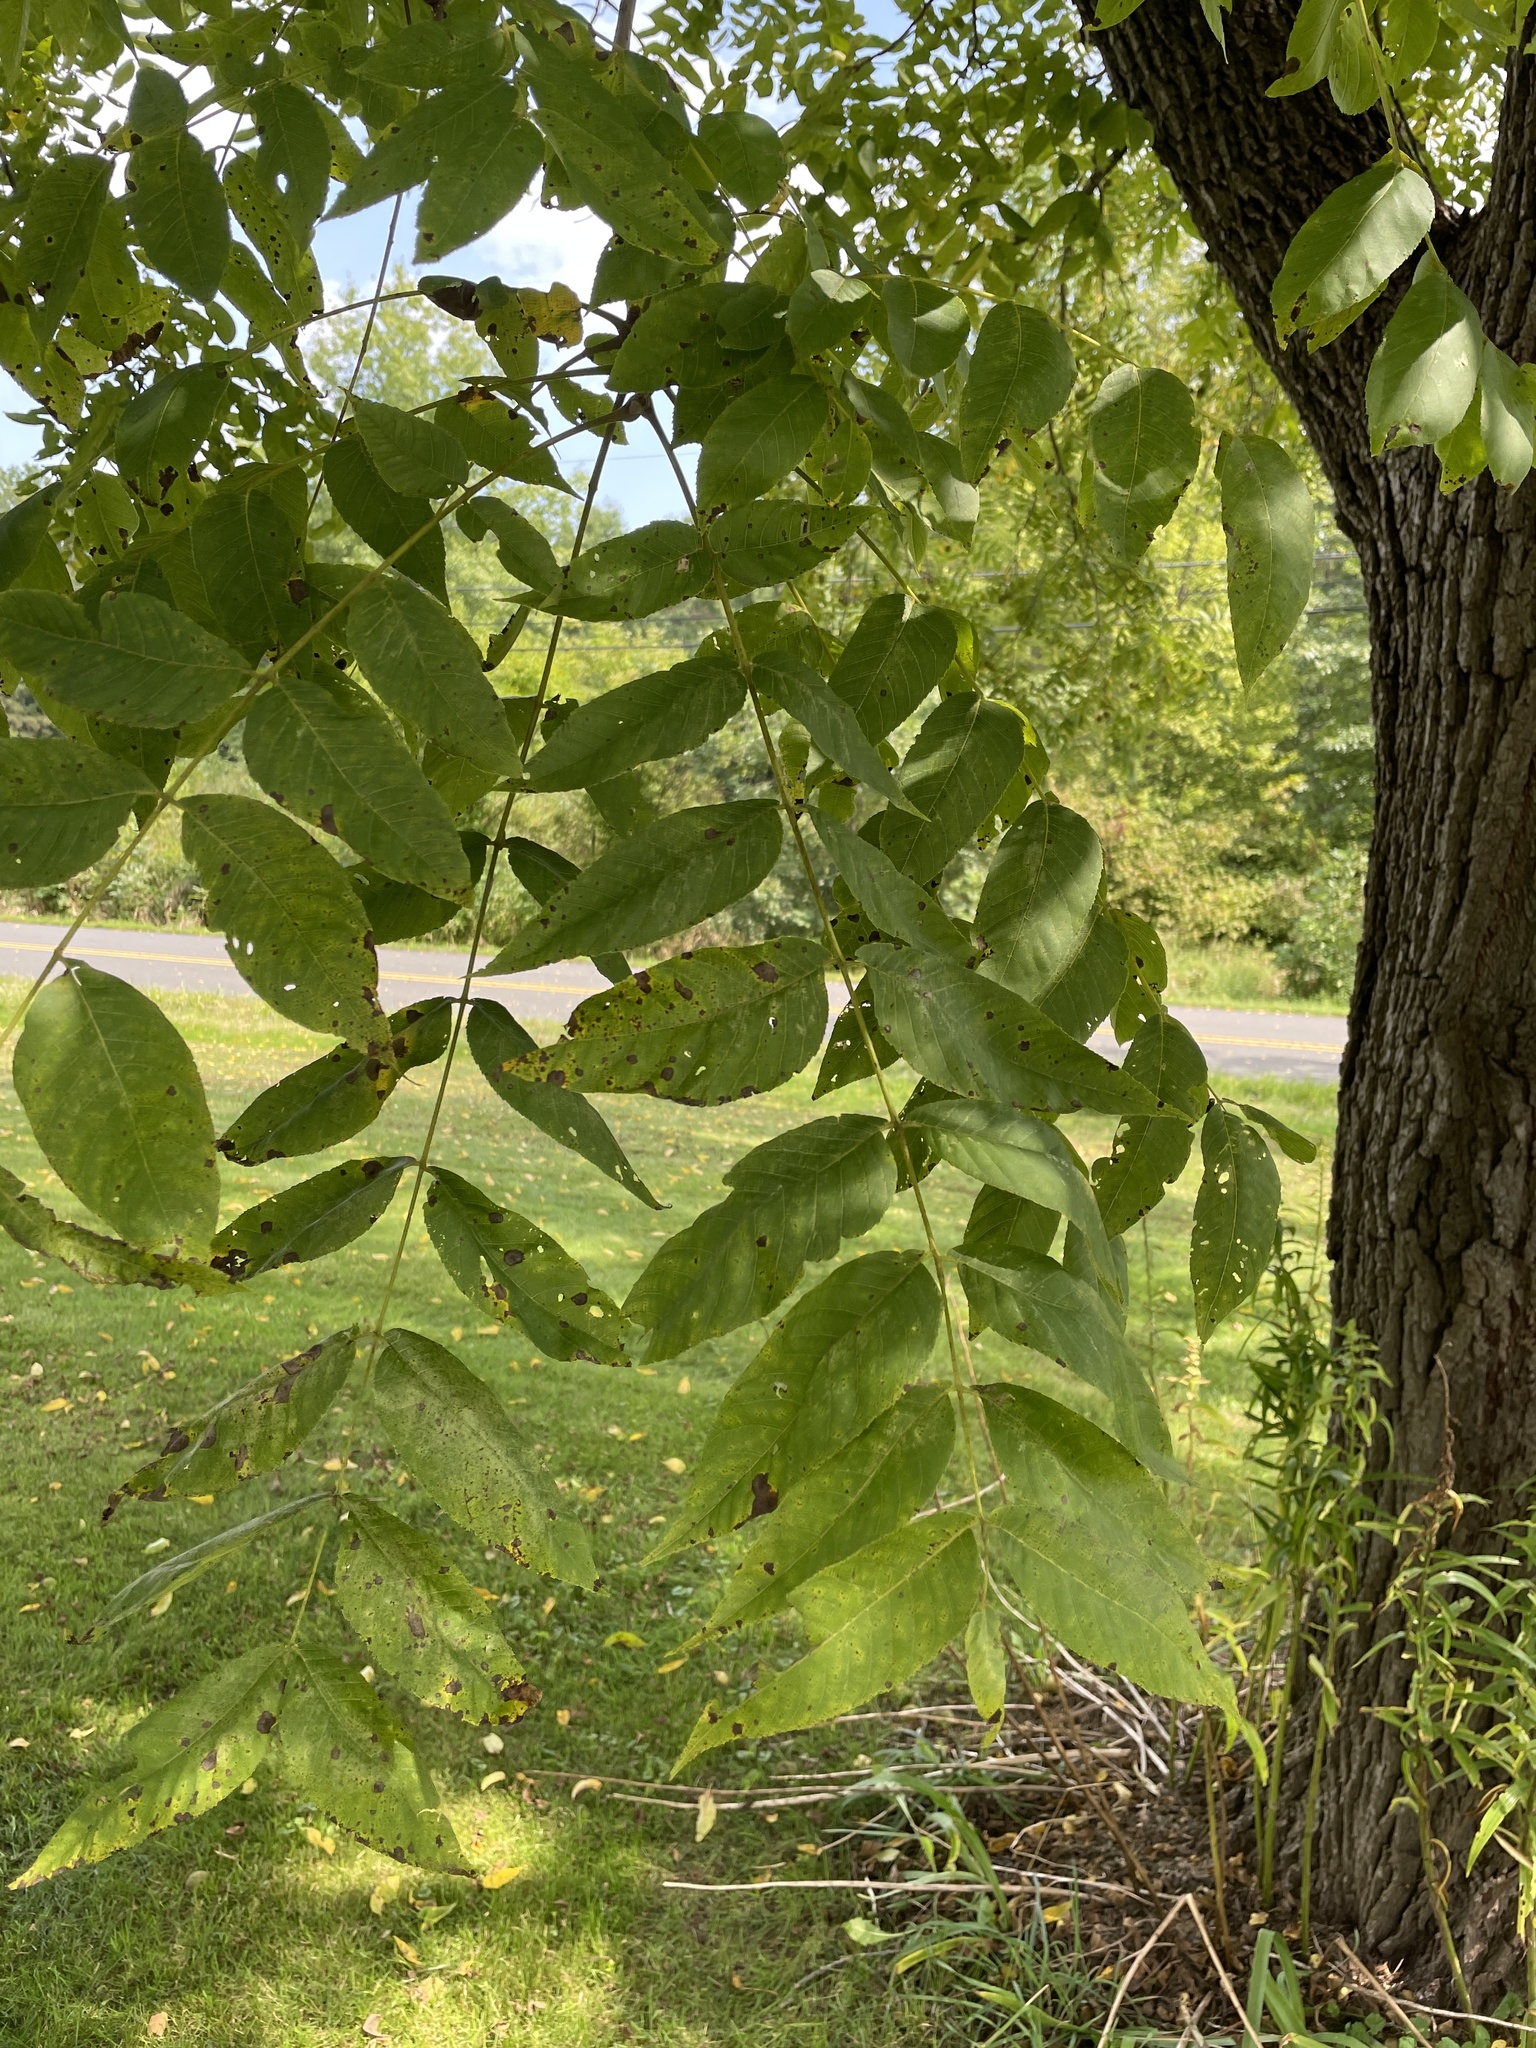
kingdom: Plantae
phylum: Tracheophyta
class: Magnoliopsida
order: Fagales
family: Juglandaceae
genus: Juglans
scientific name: Juglans nigra
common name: Black walnut
